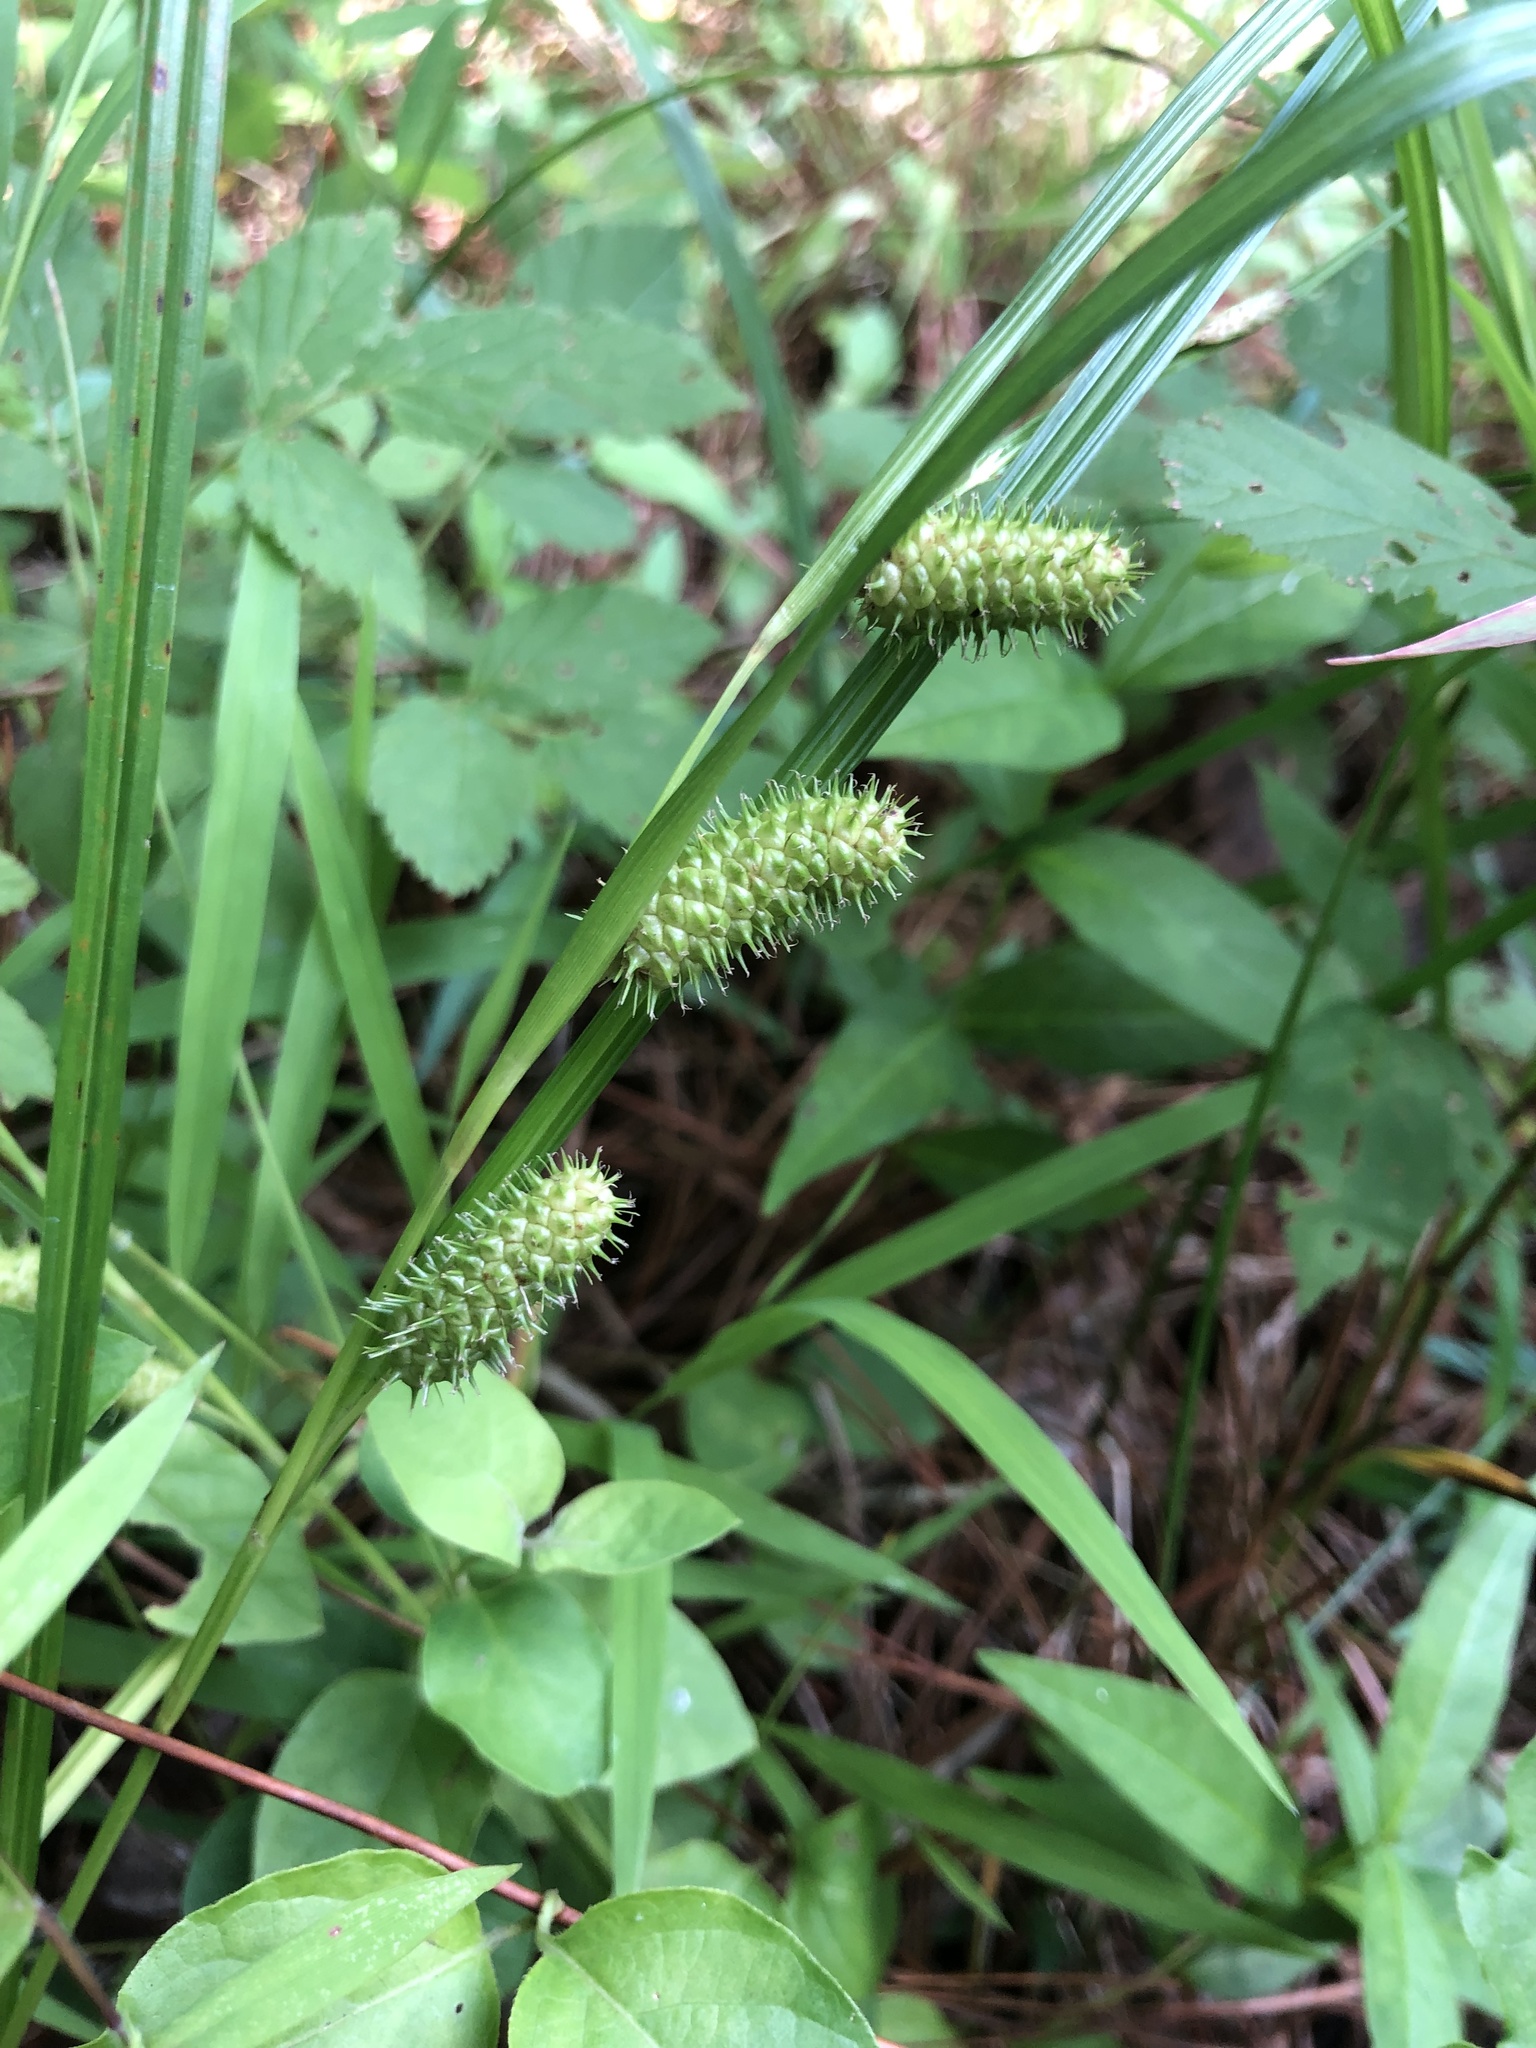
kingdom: Plantae
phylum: Tracheophyta
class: Liliopsida
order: Poales
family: Cyperaceae
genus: Carex
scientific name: Carex aureolensis
